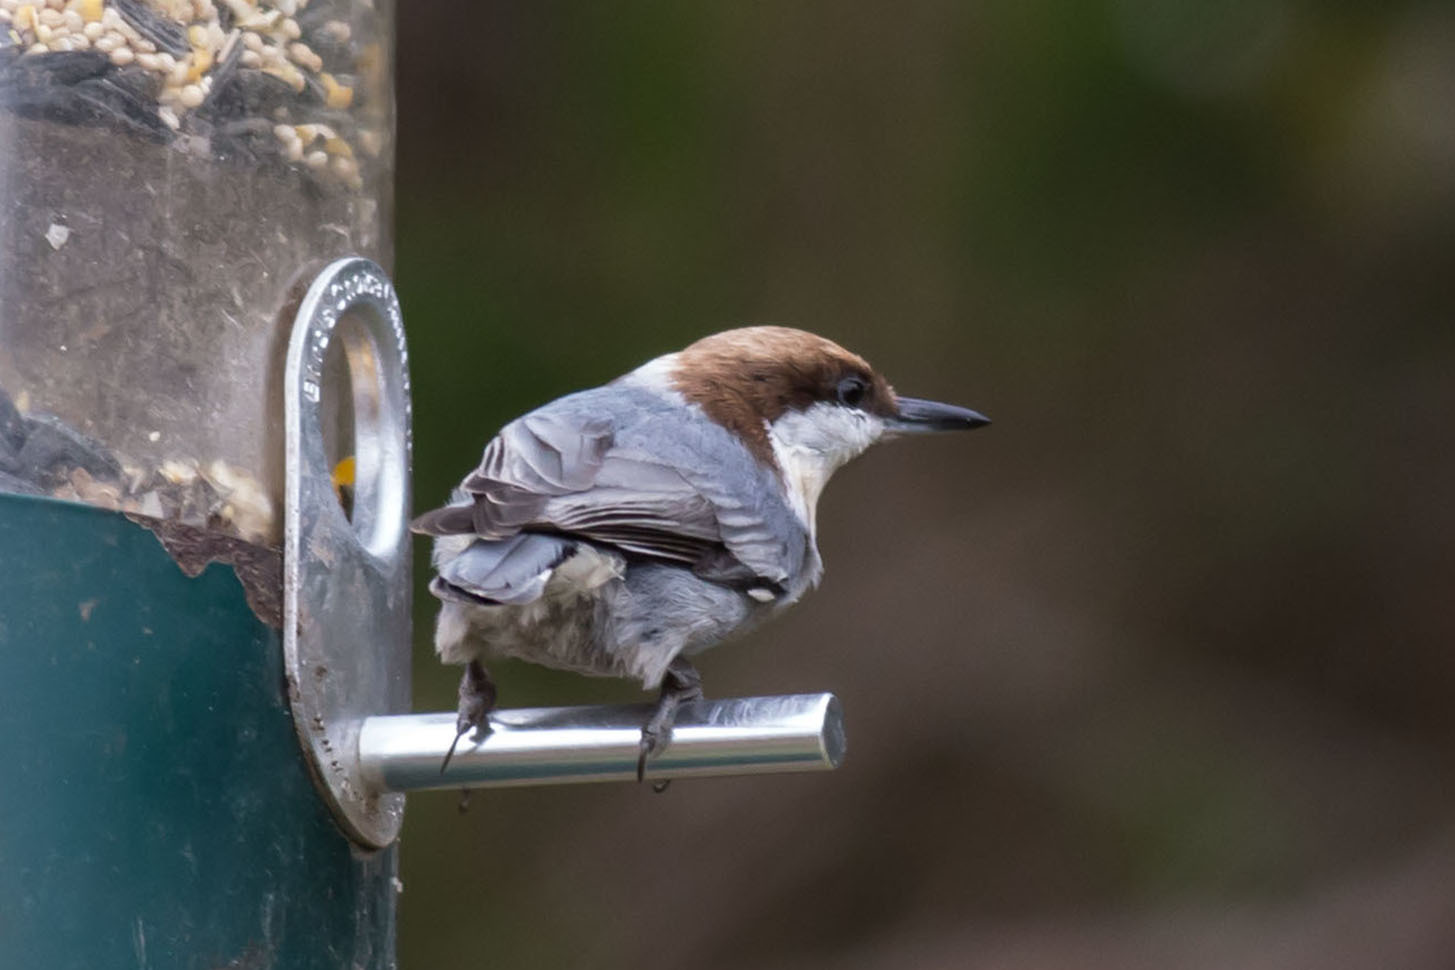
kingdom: Animalia
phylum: Chordata
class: Aves
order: Passeriformes
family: Sittidae
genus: Sitta
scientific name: Sitta pusilla
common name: Brown-headed nuthatch
